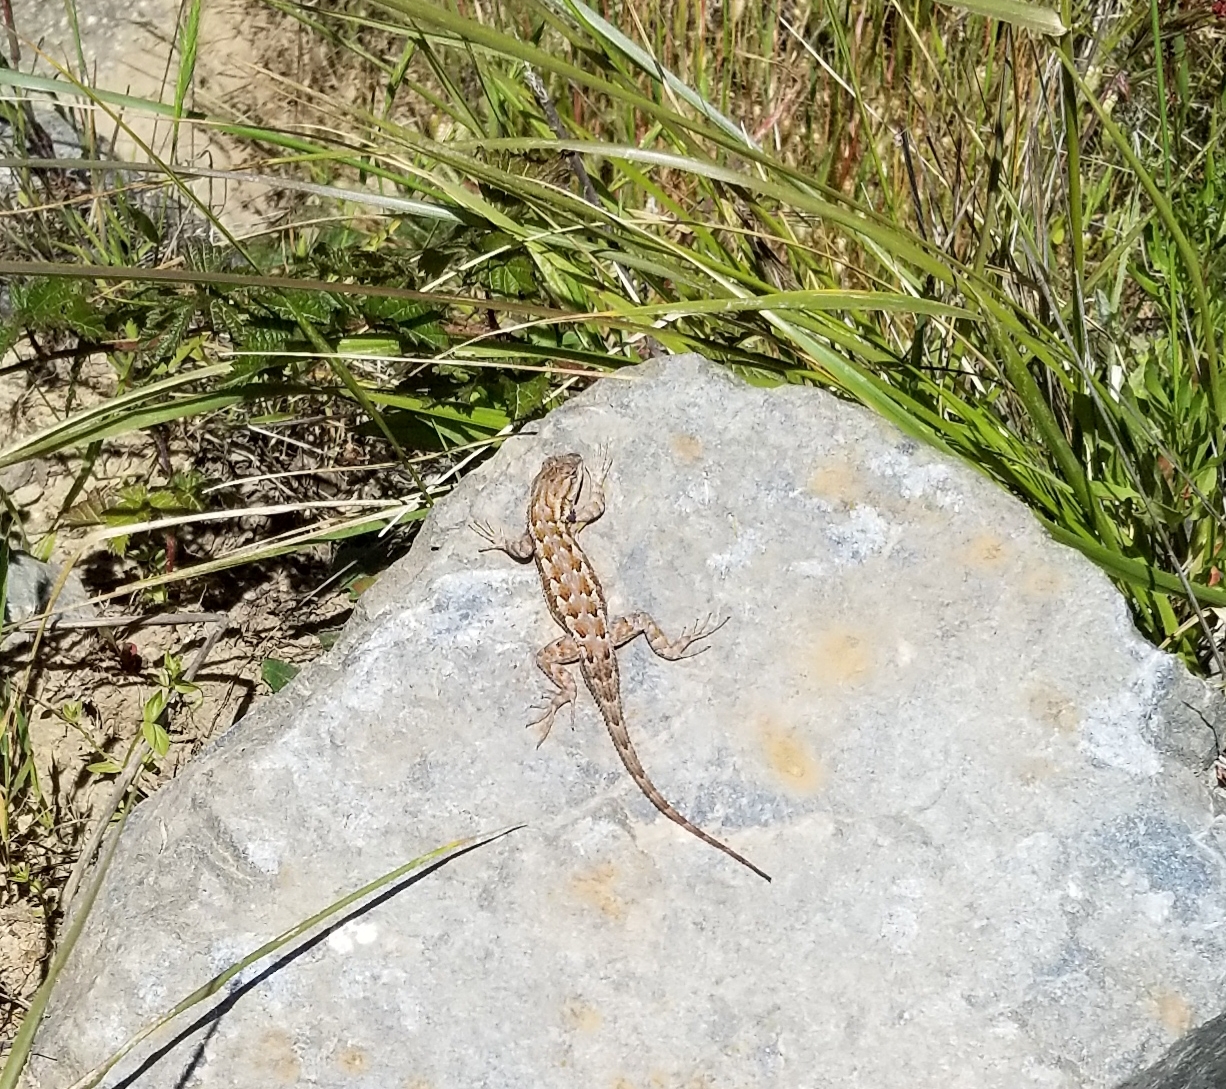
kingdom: Animalia
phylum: Chordata
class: Squamata
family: Phrynosomatidae
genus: Sceloporus
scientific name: Sceloporus occidentalis
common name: Western fence lizard
